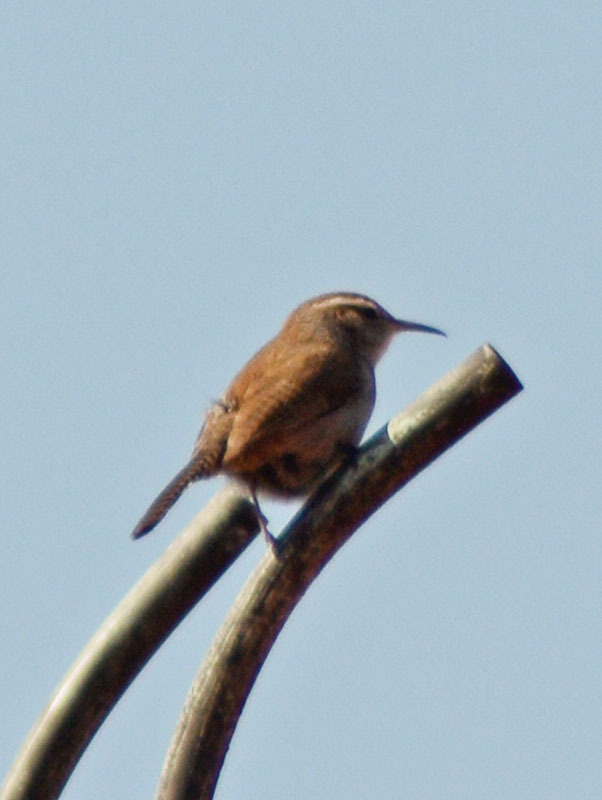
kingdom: Animalia
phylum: Chordata
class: Aves
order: Passeriformes
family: Troglodytidae
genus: Thryomanes
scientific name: Thryomanes bewickii
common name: Bewick's wren
